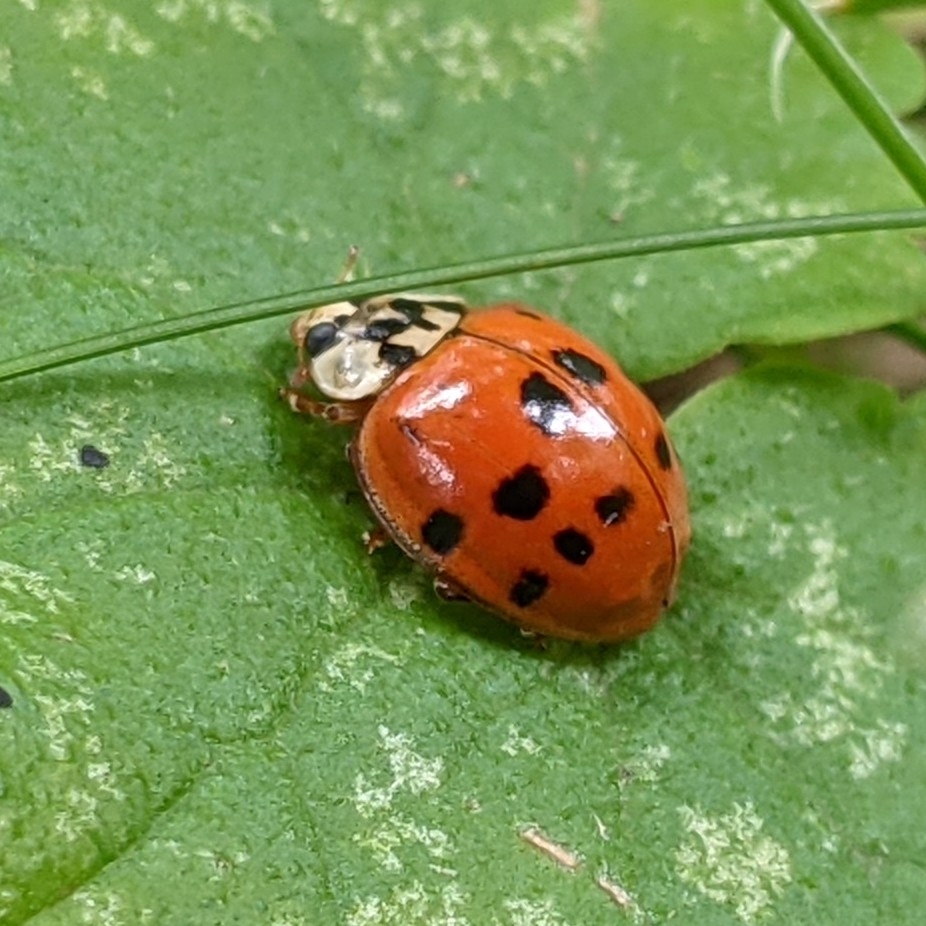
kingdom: Animalia
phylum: Arthropoda
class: Insecta
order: Coleoptera
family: Coccinellidae
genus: Harmonia
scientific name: Harmonia axyridis
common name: Harlequin ladybird
